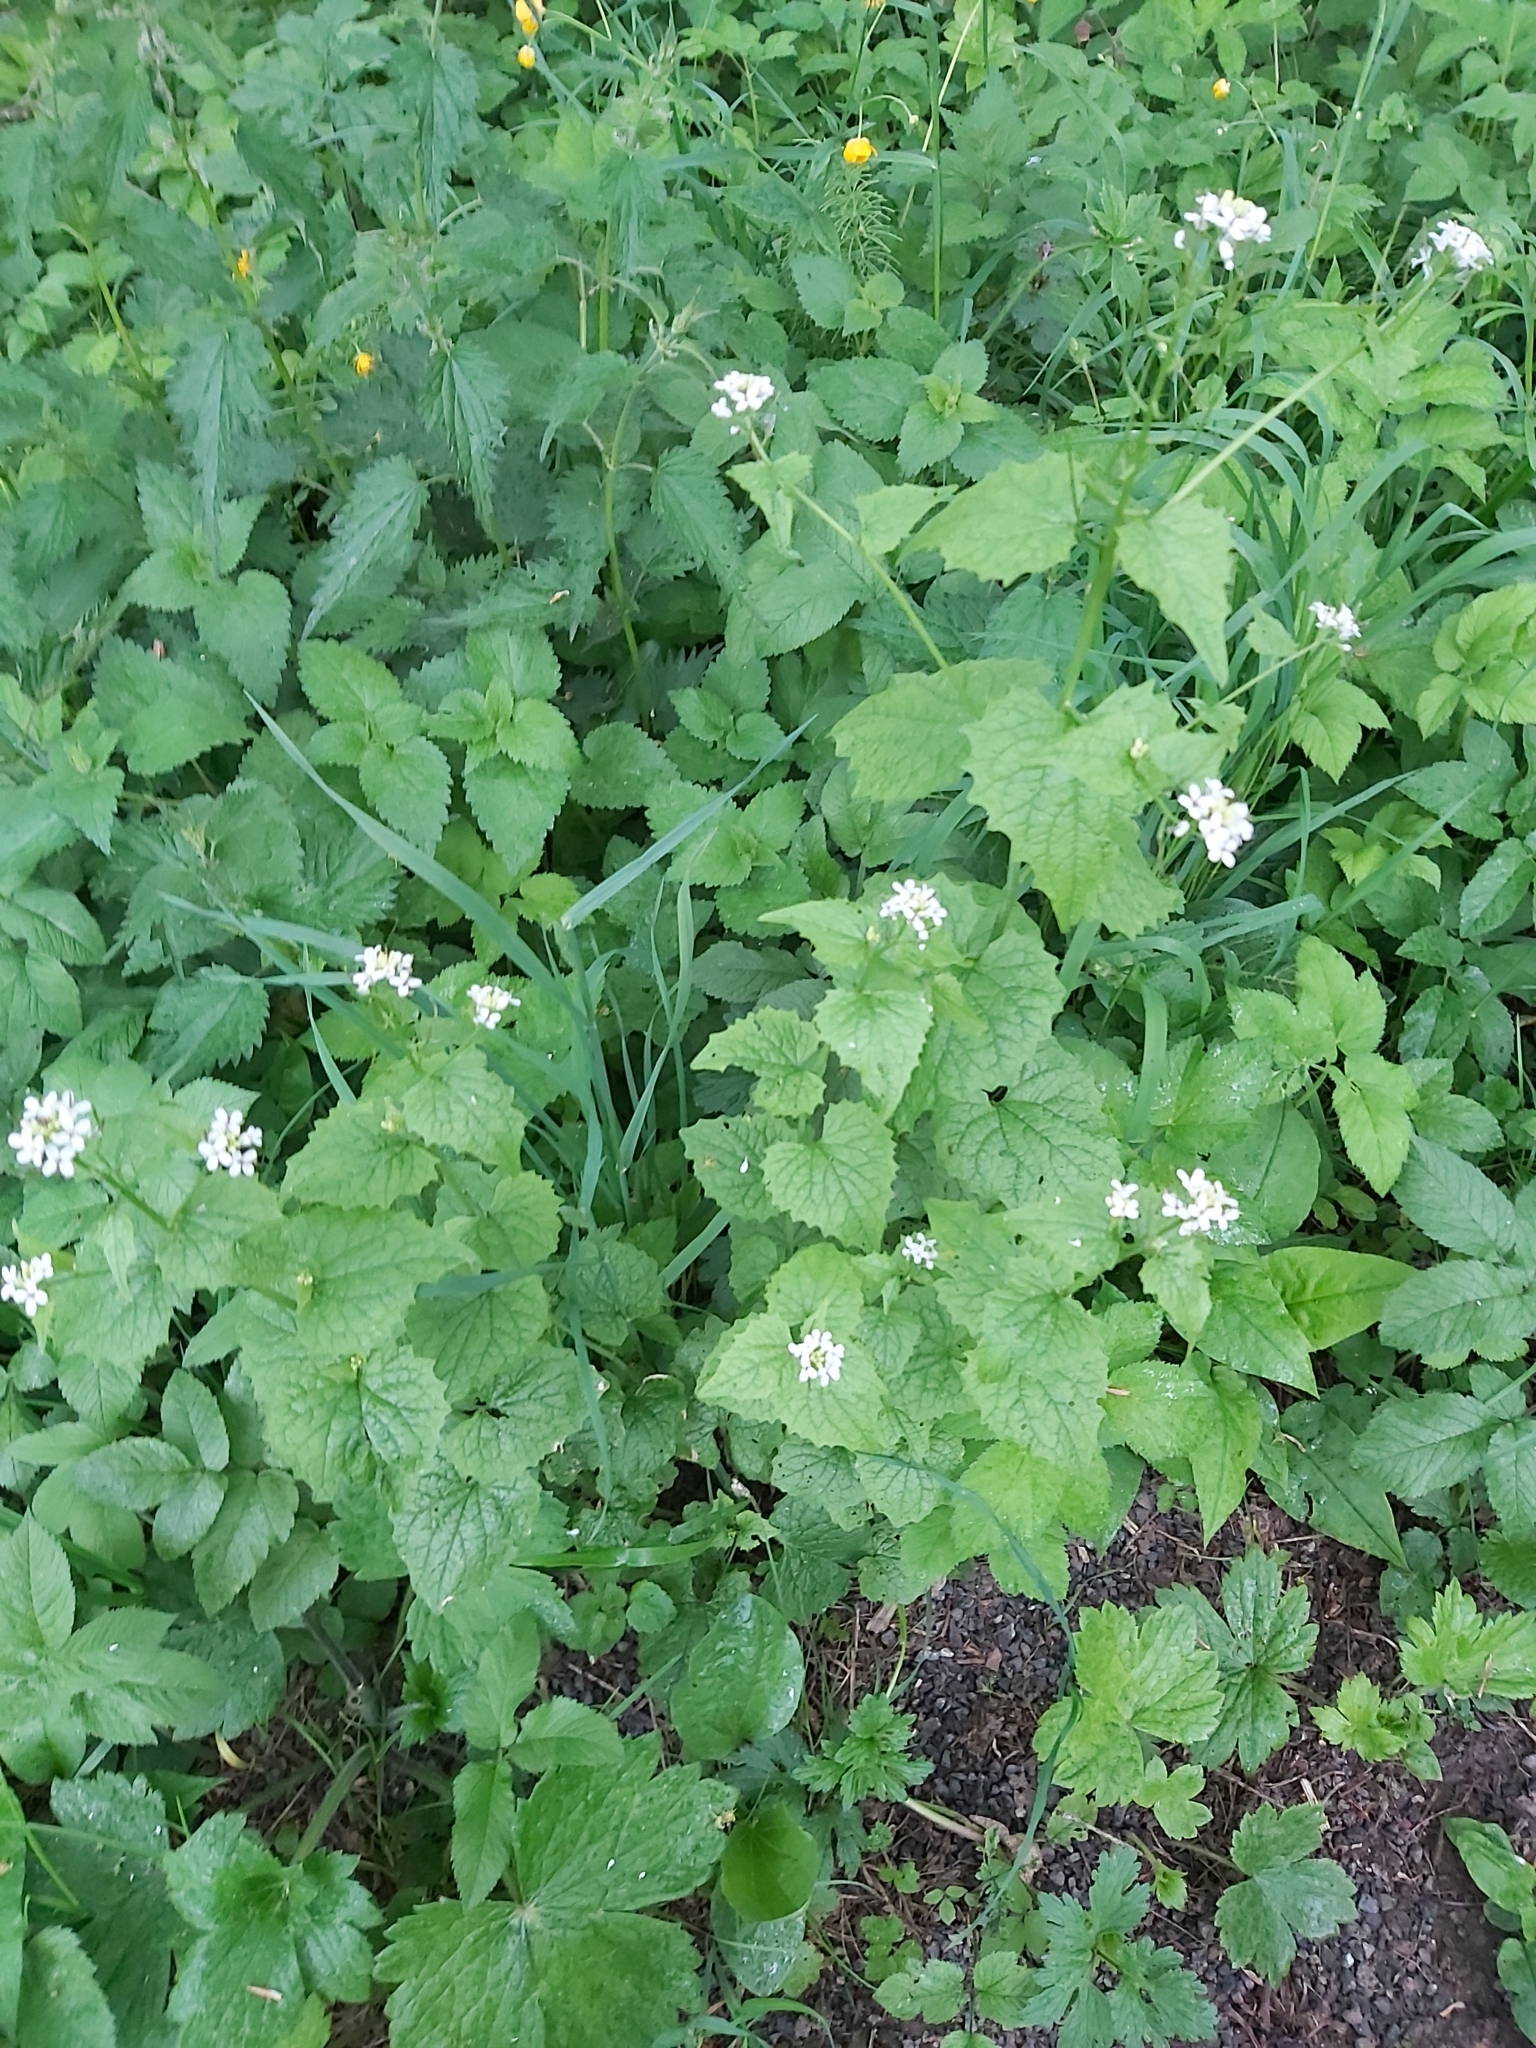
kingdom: Plantae
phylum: Tracheophyta
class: Magnoliopsida
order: Brassicales
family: Brassicaceae
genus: Alliaria
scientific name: Alliaria petiolata
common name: Garlic mustard
